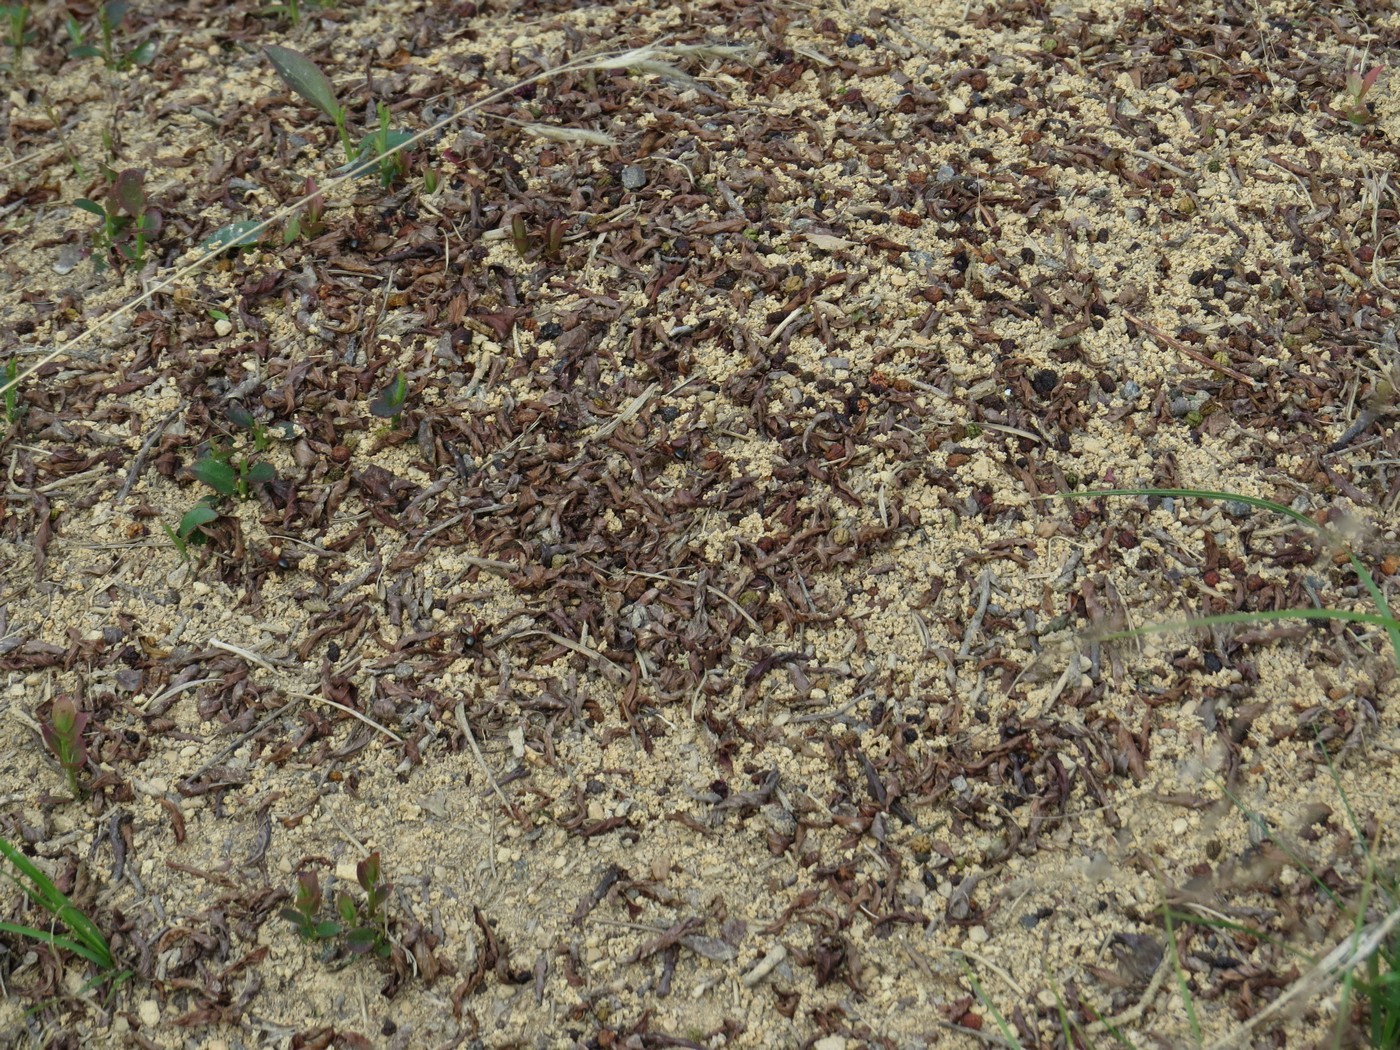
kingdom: Animalia
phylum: Arthropoda
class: Insecta
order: Hymenoptera
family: Formicidae
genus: Formica
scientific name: Formica exsectoides
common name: Allegheny mound ant
